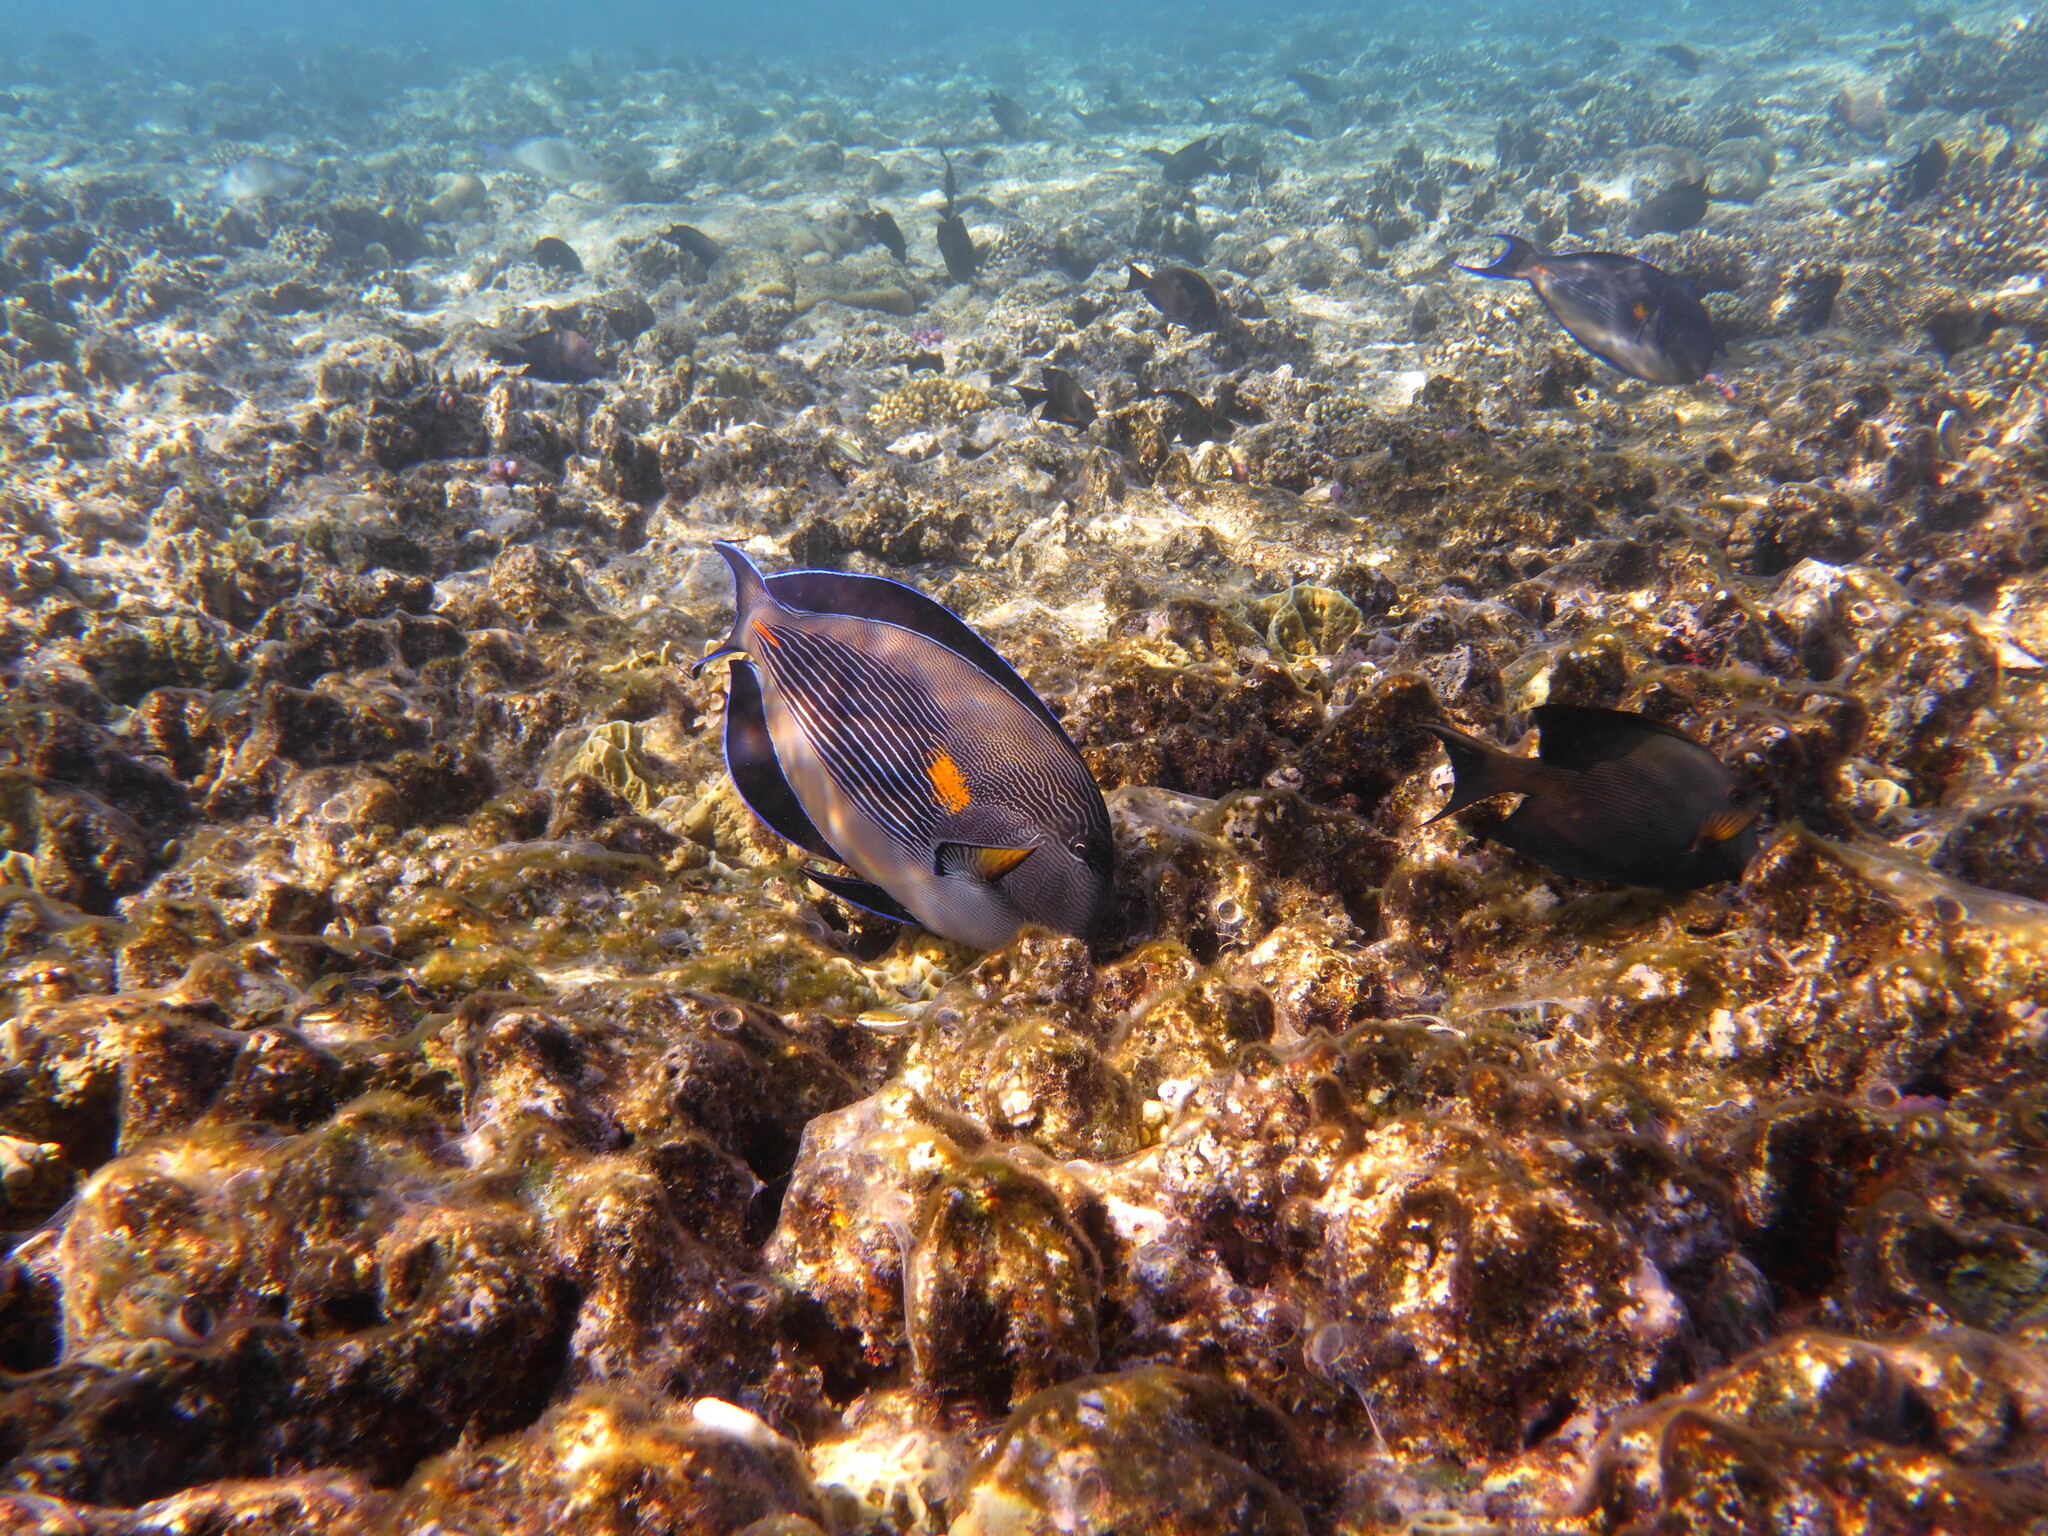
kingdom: Animalia
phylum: Chordata
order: Perciformes
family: Acanthuridae
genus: Acanthurus
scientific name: Acanthurus sohal
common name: Red sea surgeonfish
